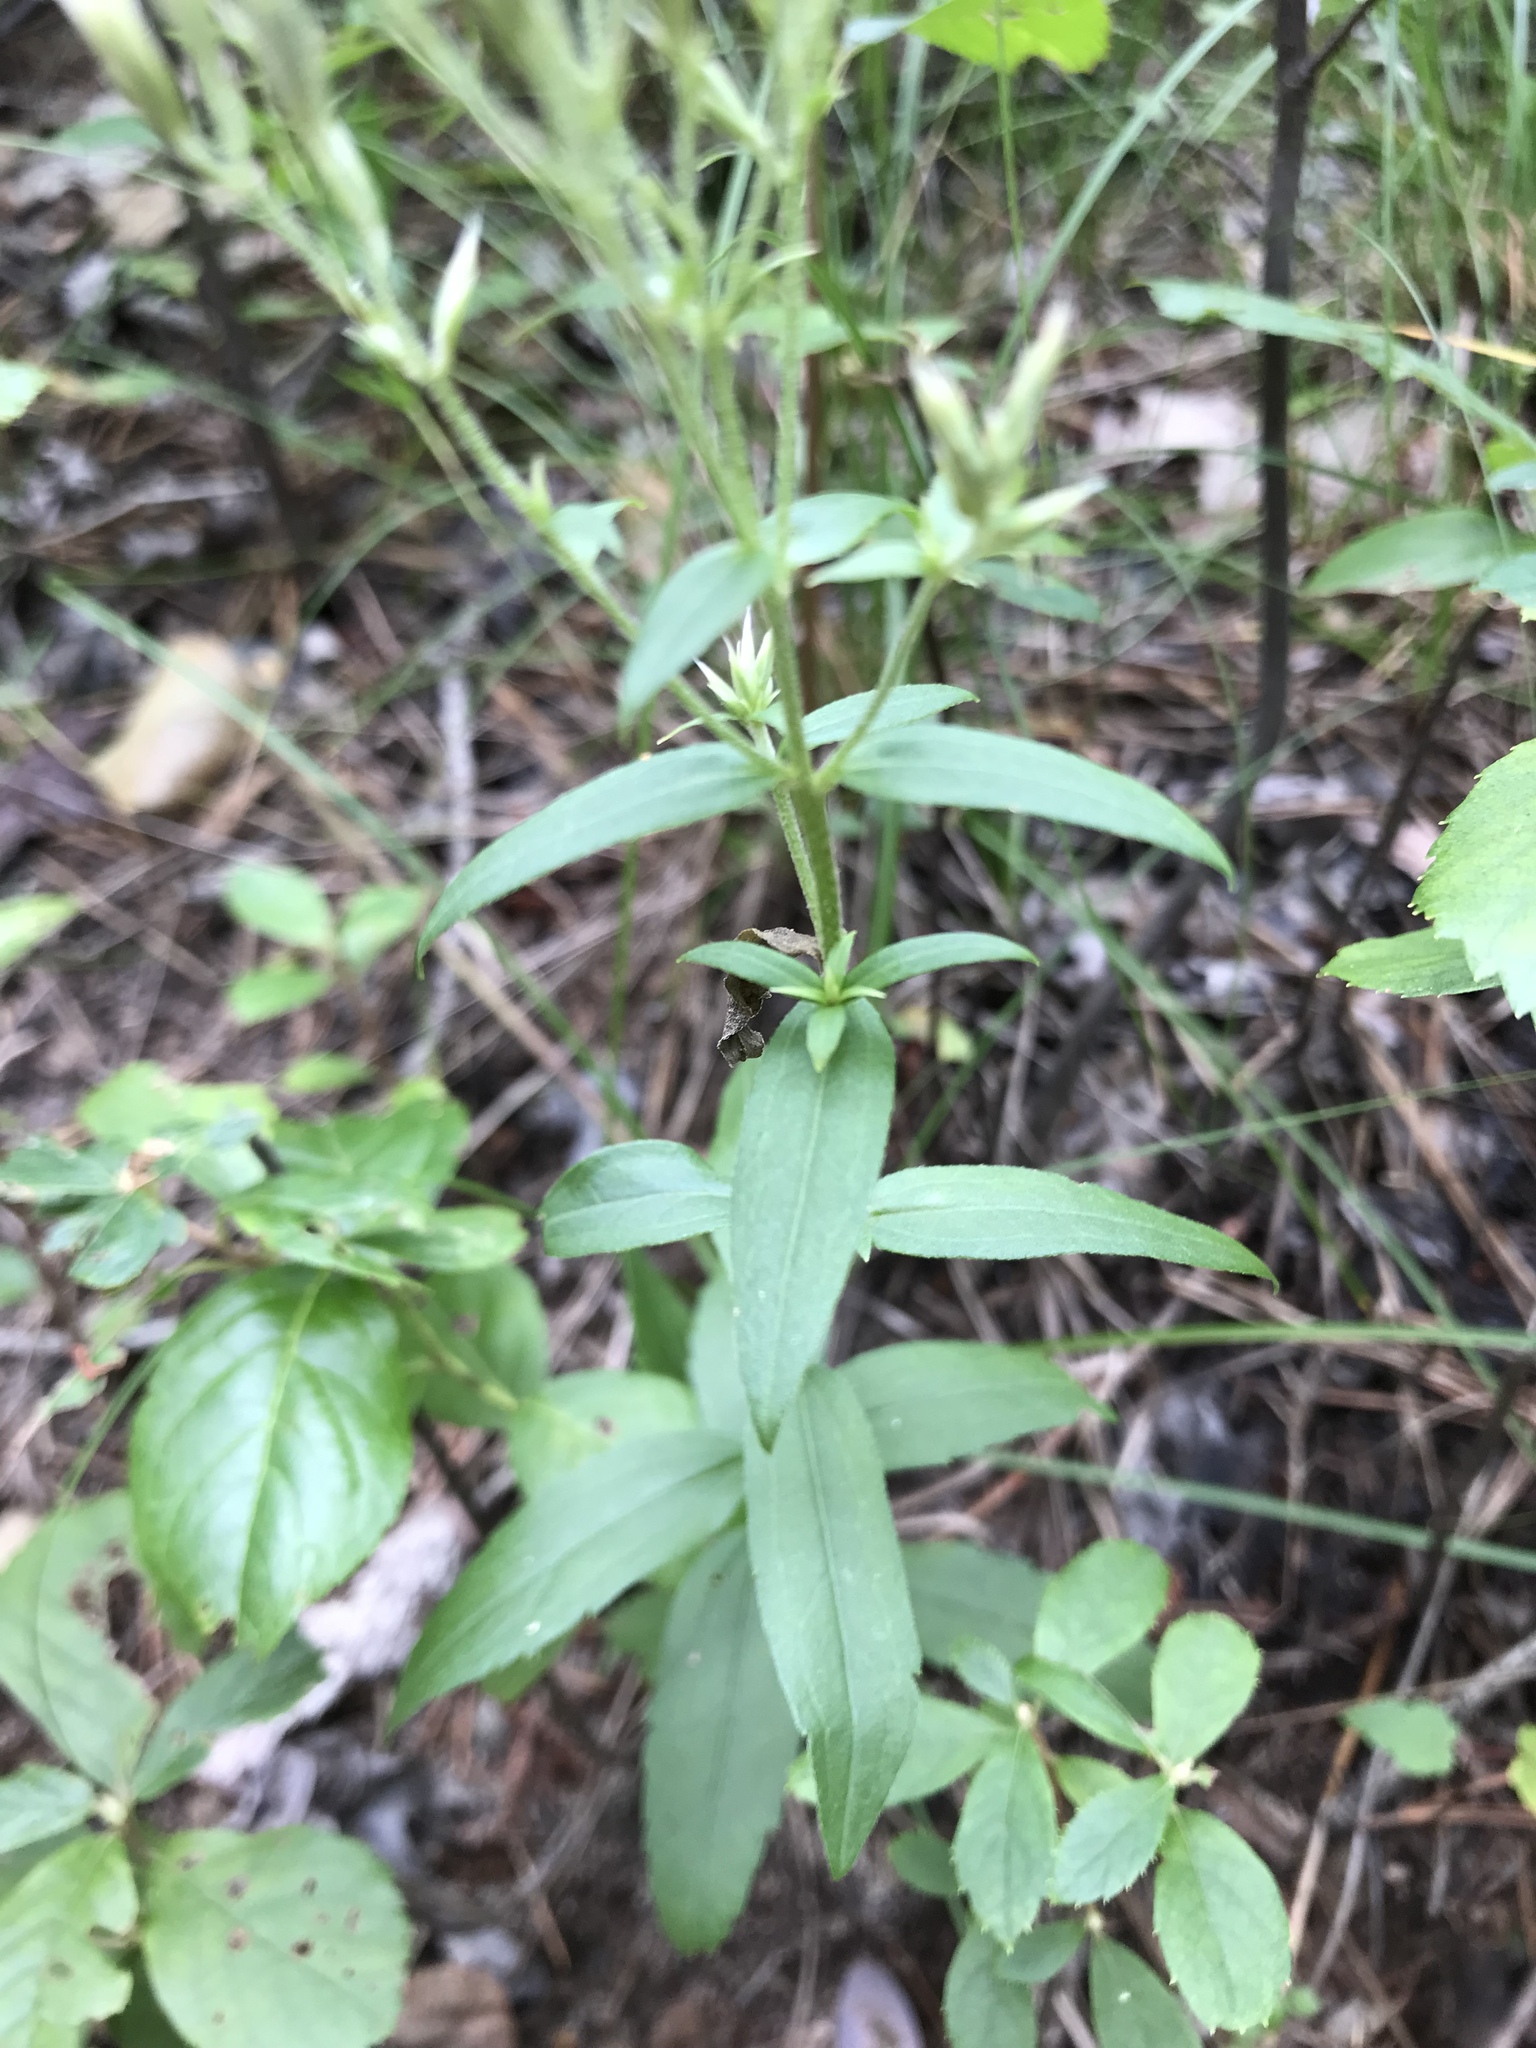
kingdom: Plantae
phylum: Tracheophyta
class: Magnoliopsida
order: Asterales
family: Asteraceae
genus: Eupatorium
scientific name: Eupatorium album
